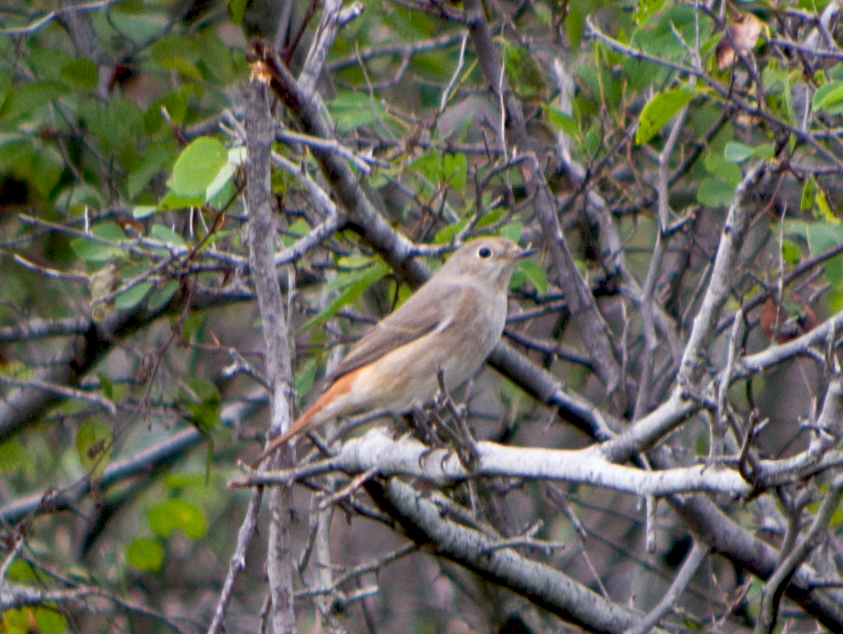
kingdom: Animalia
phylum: Chordata
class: Aves
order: Passeriformes
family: Muscicapidae
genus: Phoenicurus
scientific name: Phoenicurus phoenicurus
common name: Common redstart
